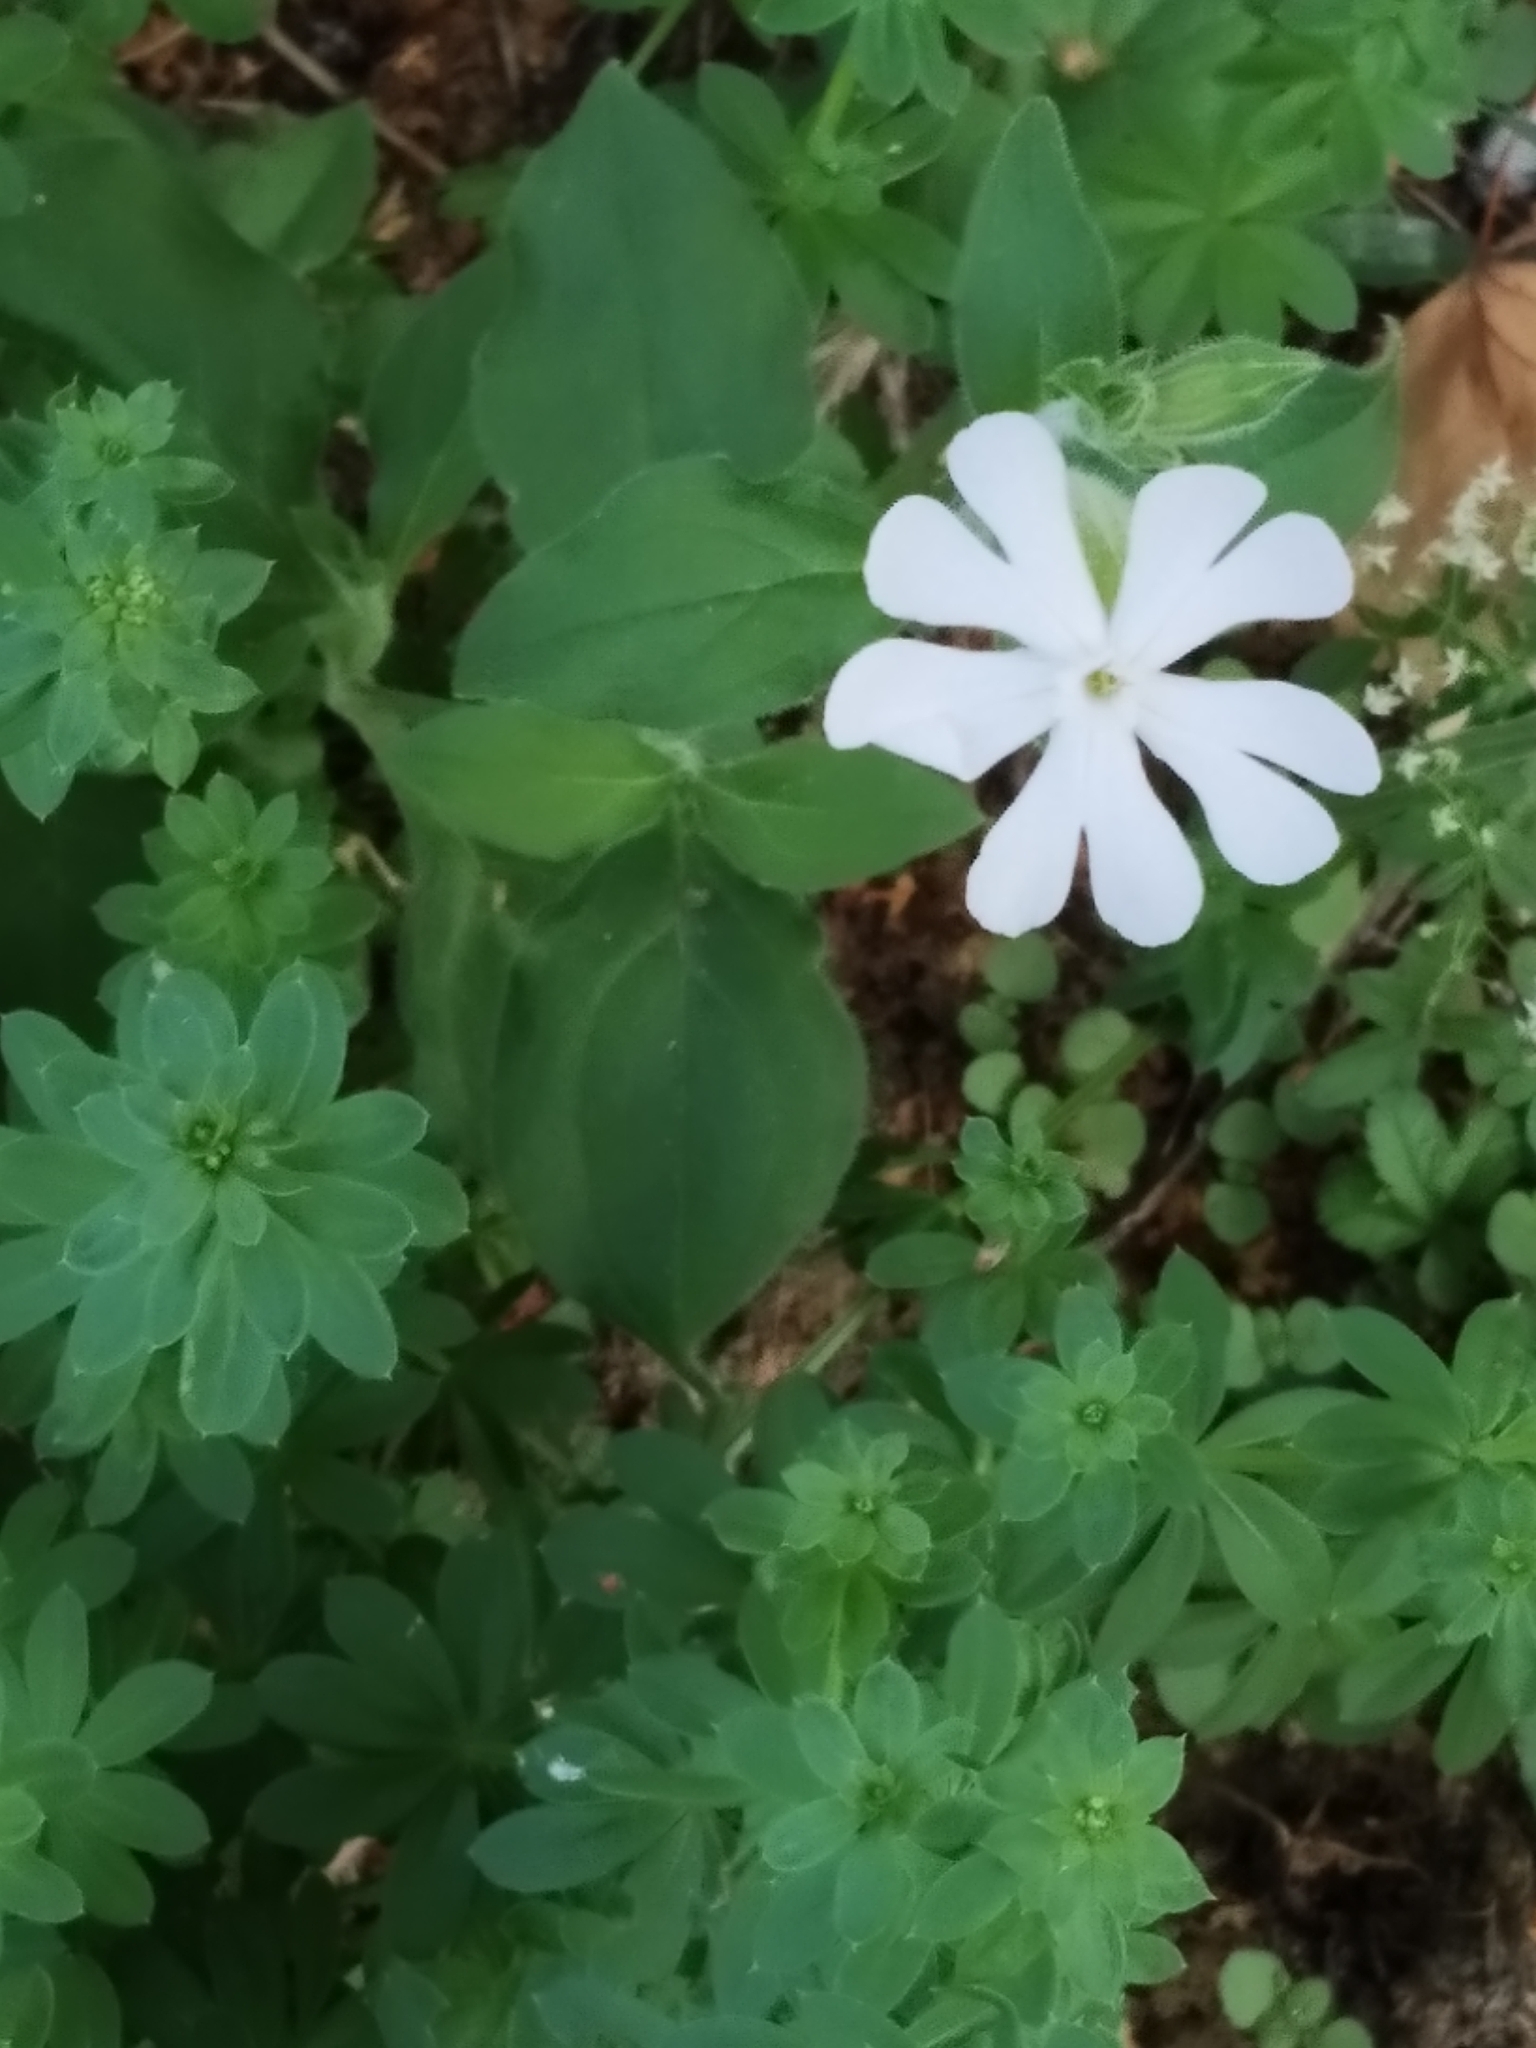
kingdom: Plantae
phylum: Tracheophyta
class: Magnoliopsida
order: Caryophyllales
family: Caryophyllaceae
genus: Silene
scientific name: Silene latifolia
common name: White campion
